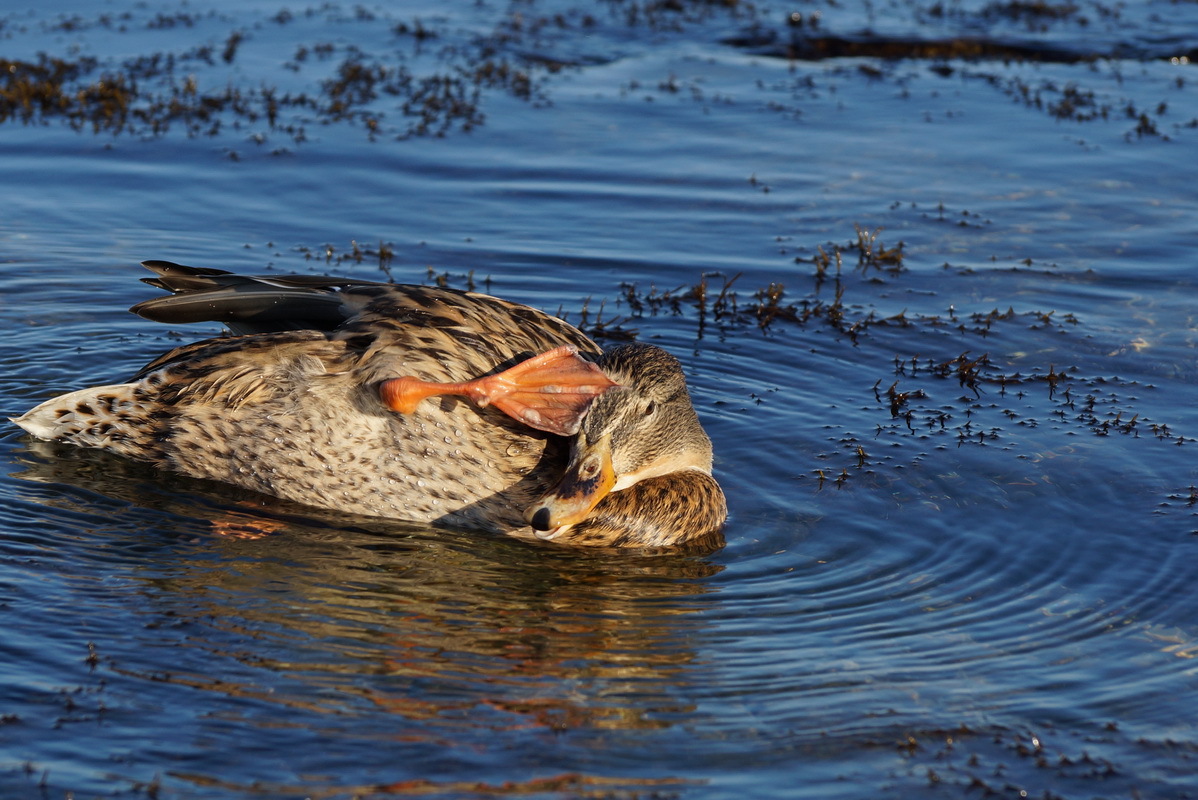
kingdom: Animalia
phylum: Chordata
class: Aves
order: Anseriformes
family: Anatidae
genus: Anas
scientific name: Anas platyrhynchos
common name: Mallard
